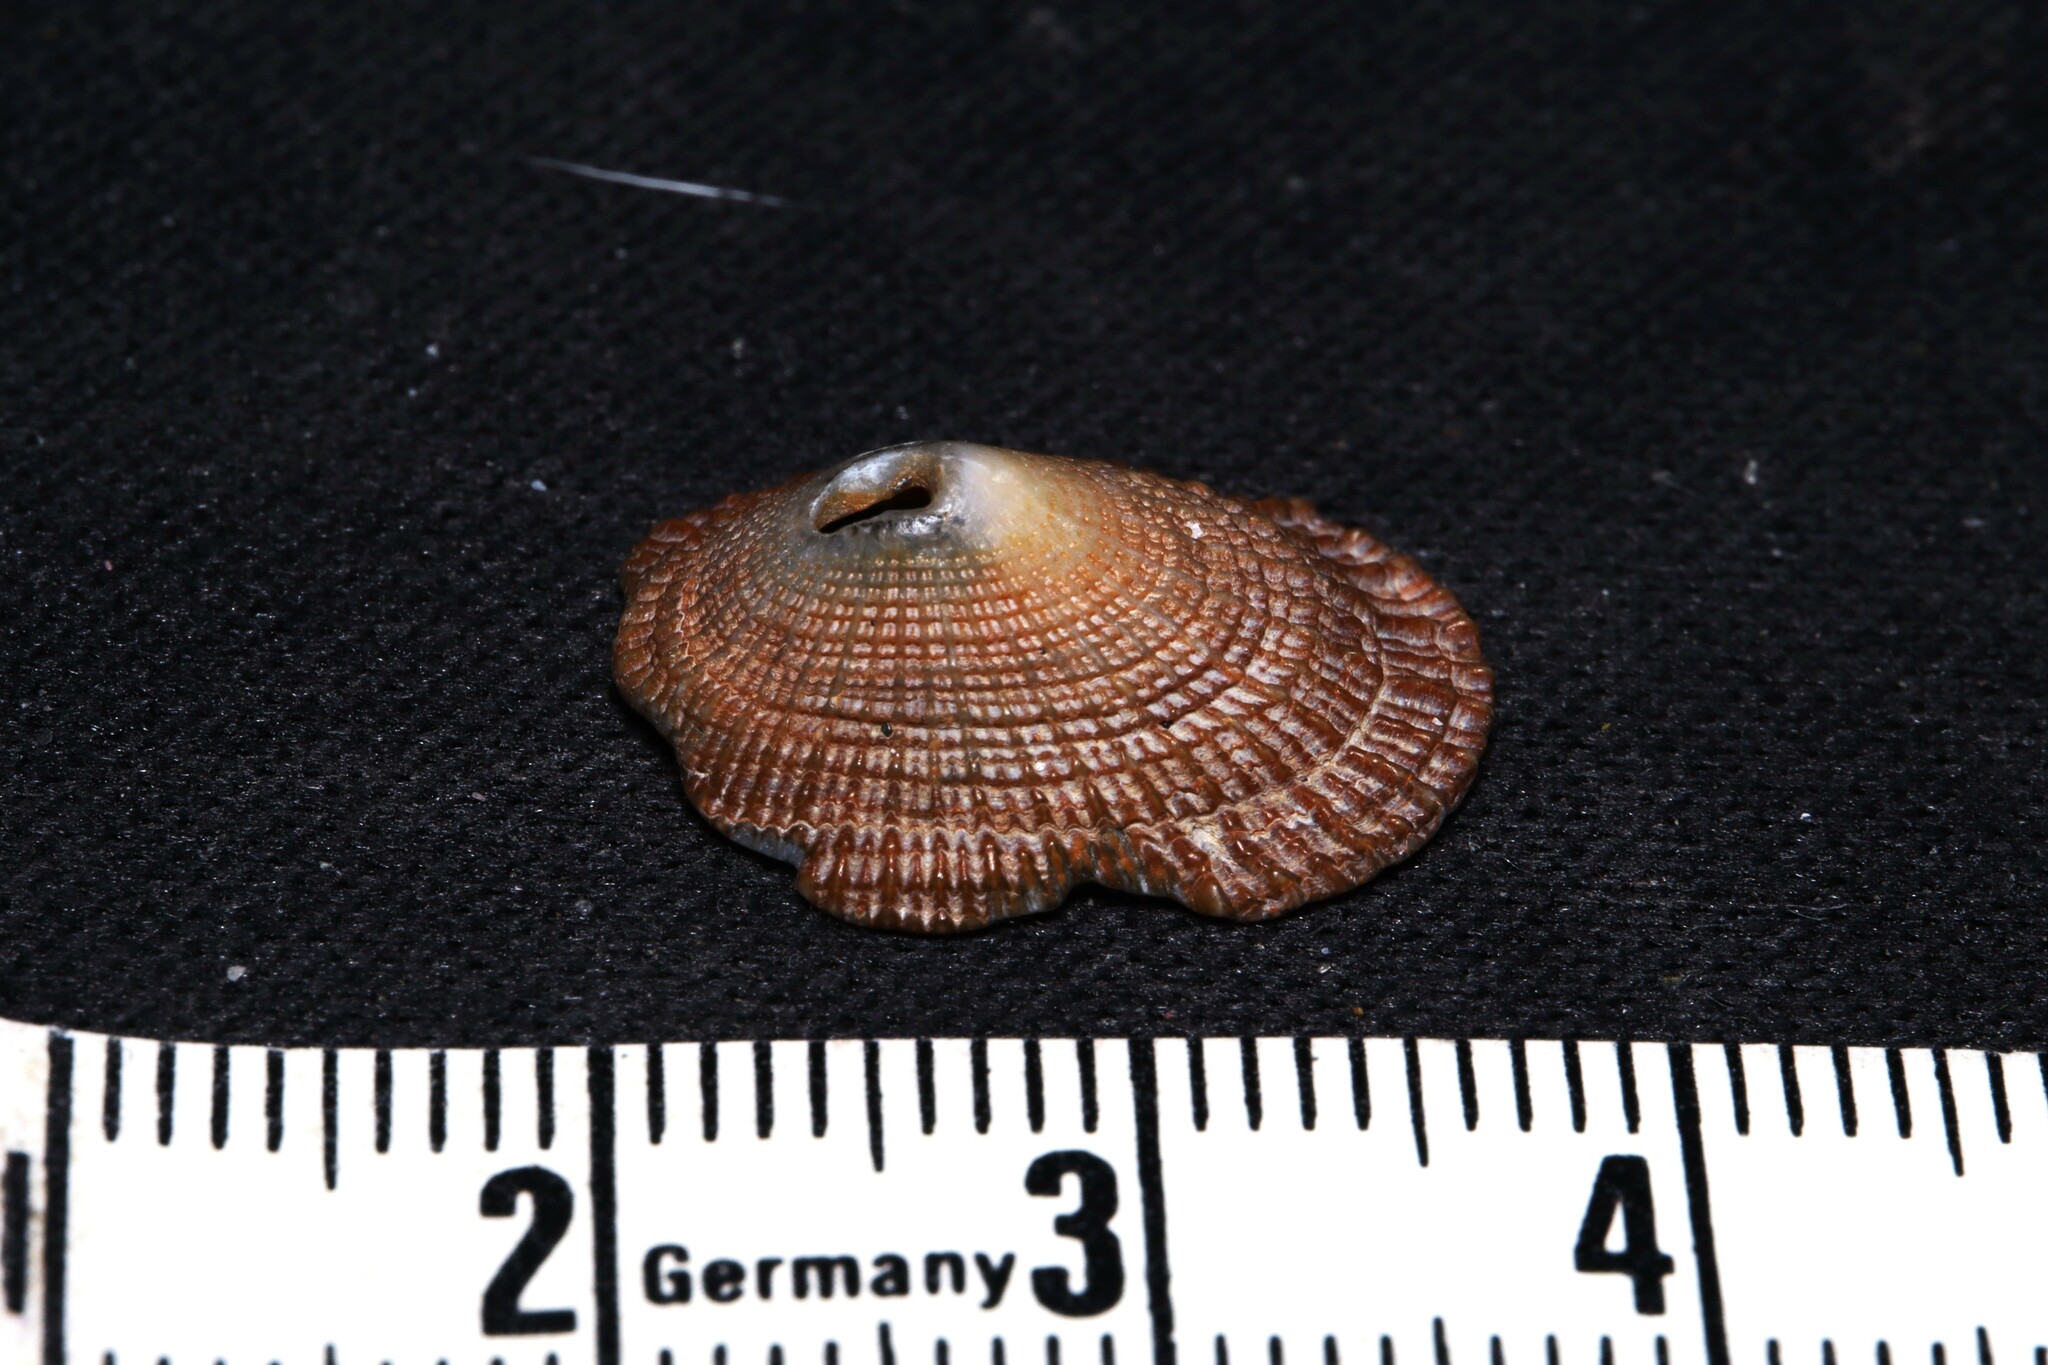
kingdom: Animalia
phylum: Mollusca
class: Gastropoda
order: Lepetellida
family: Fissurellidae
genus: Diodora
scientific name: Diodora cayenensis
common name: Cayenne keyhole limpet
